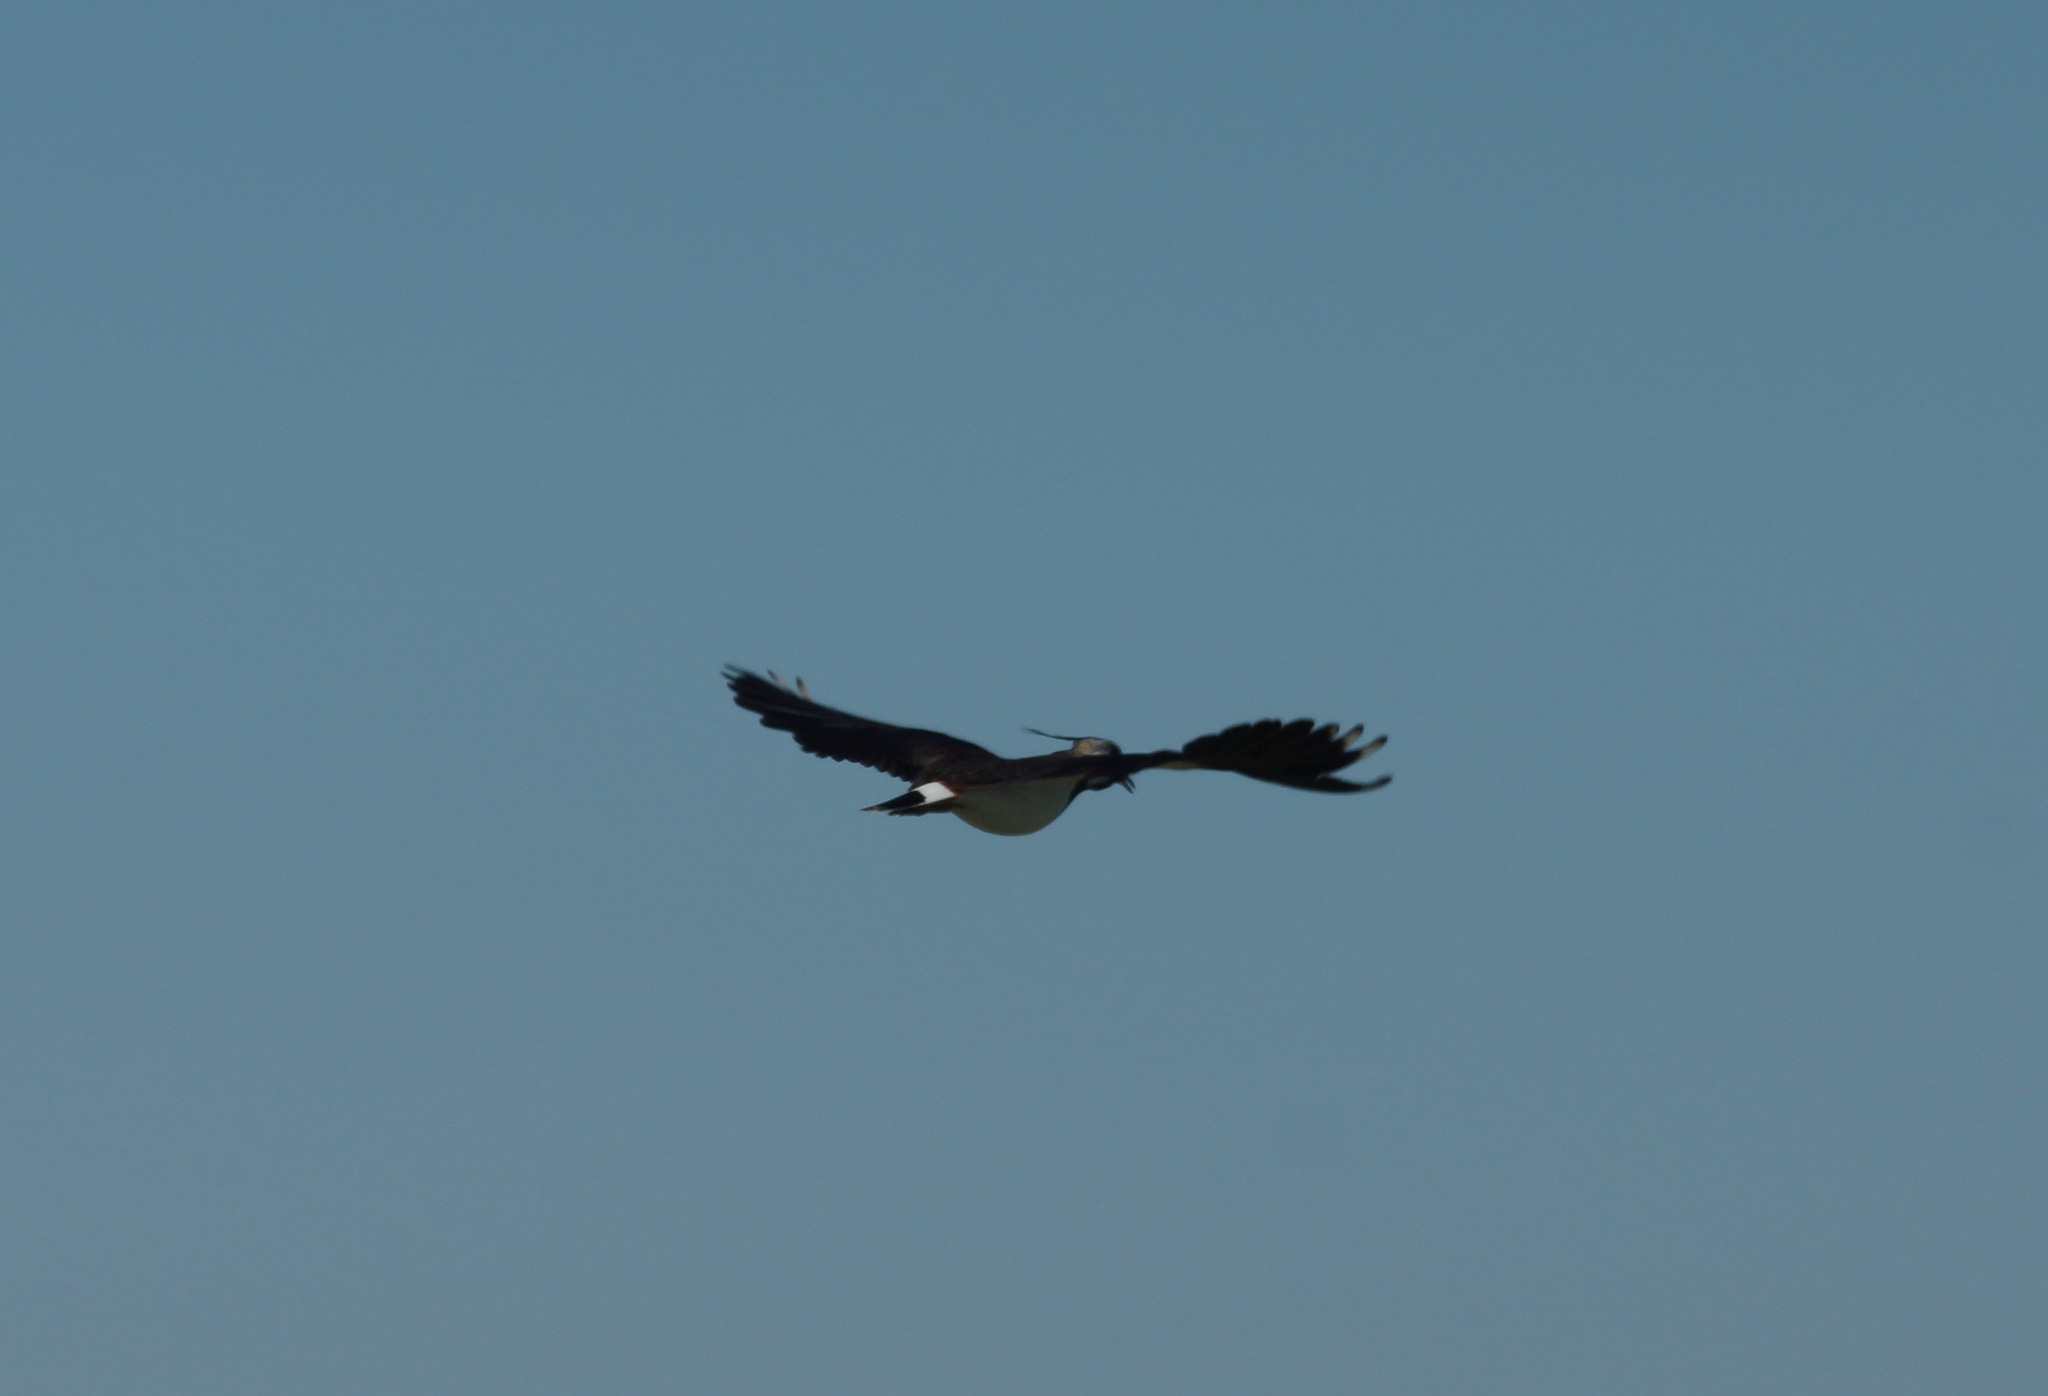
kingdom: Animalia
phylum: Chordata
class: Aves
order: Charadriiformes
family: Charadriidae
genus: Vanellus
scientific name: Vanellus vanellus
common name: Northern lapwing
